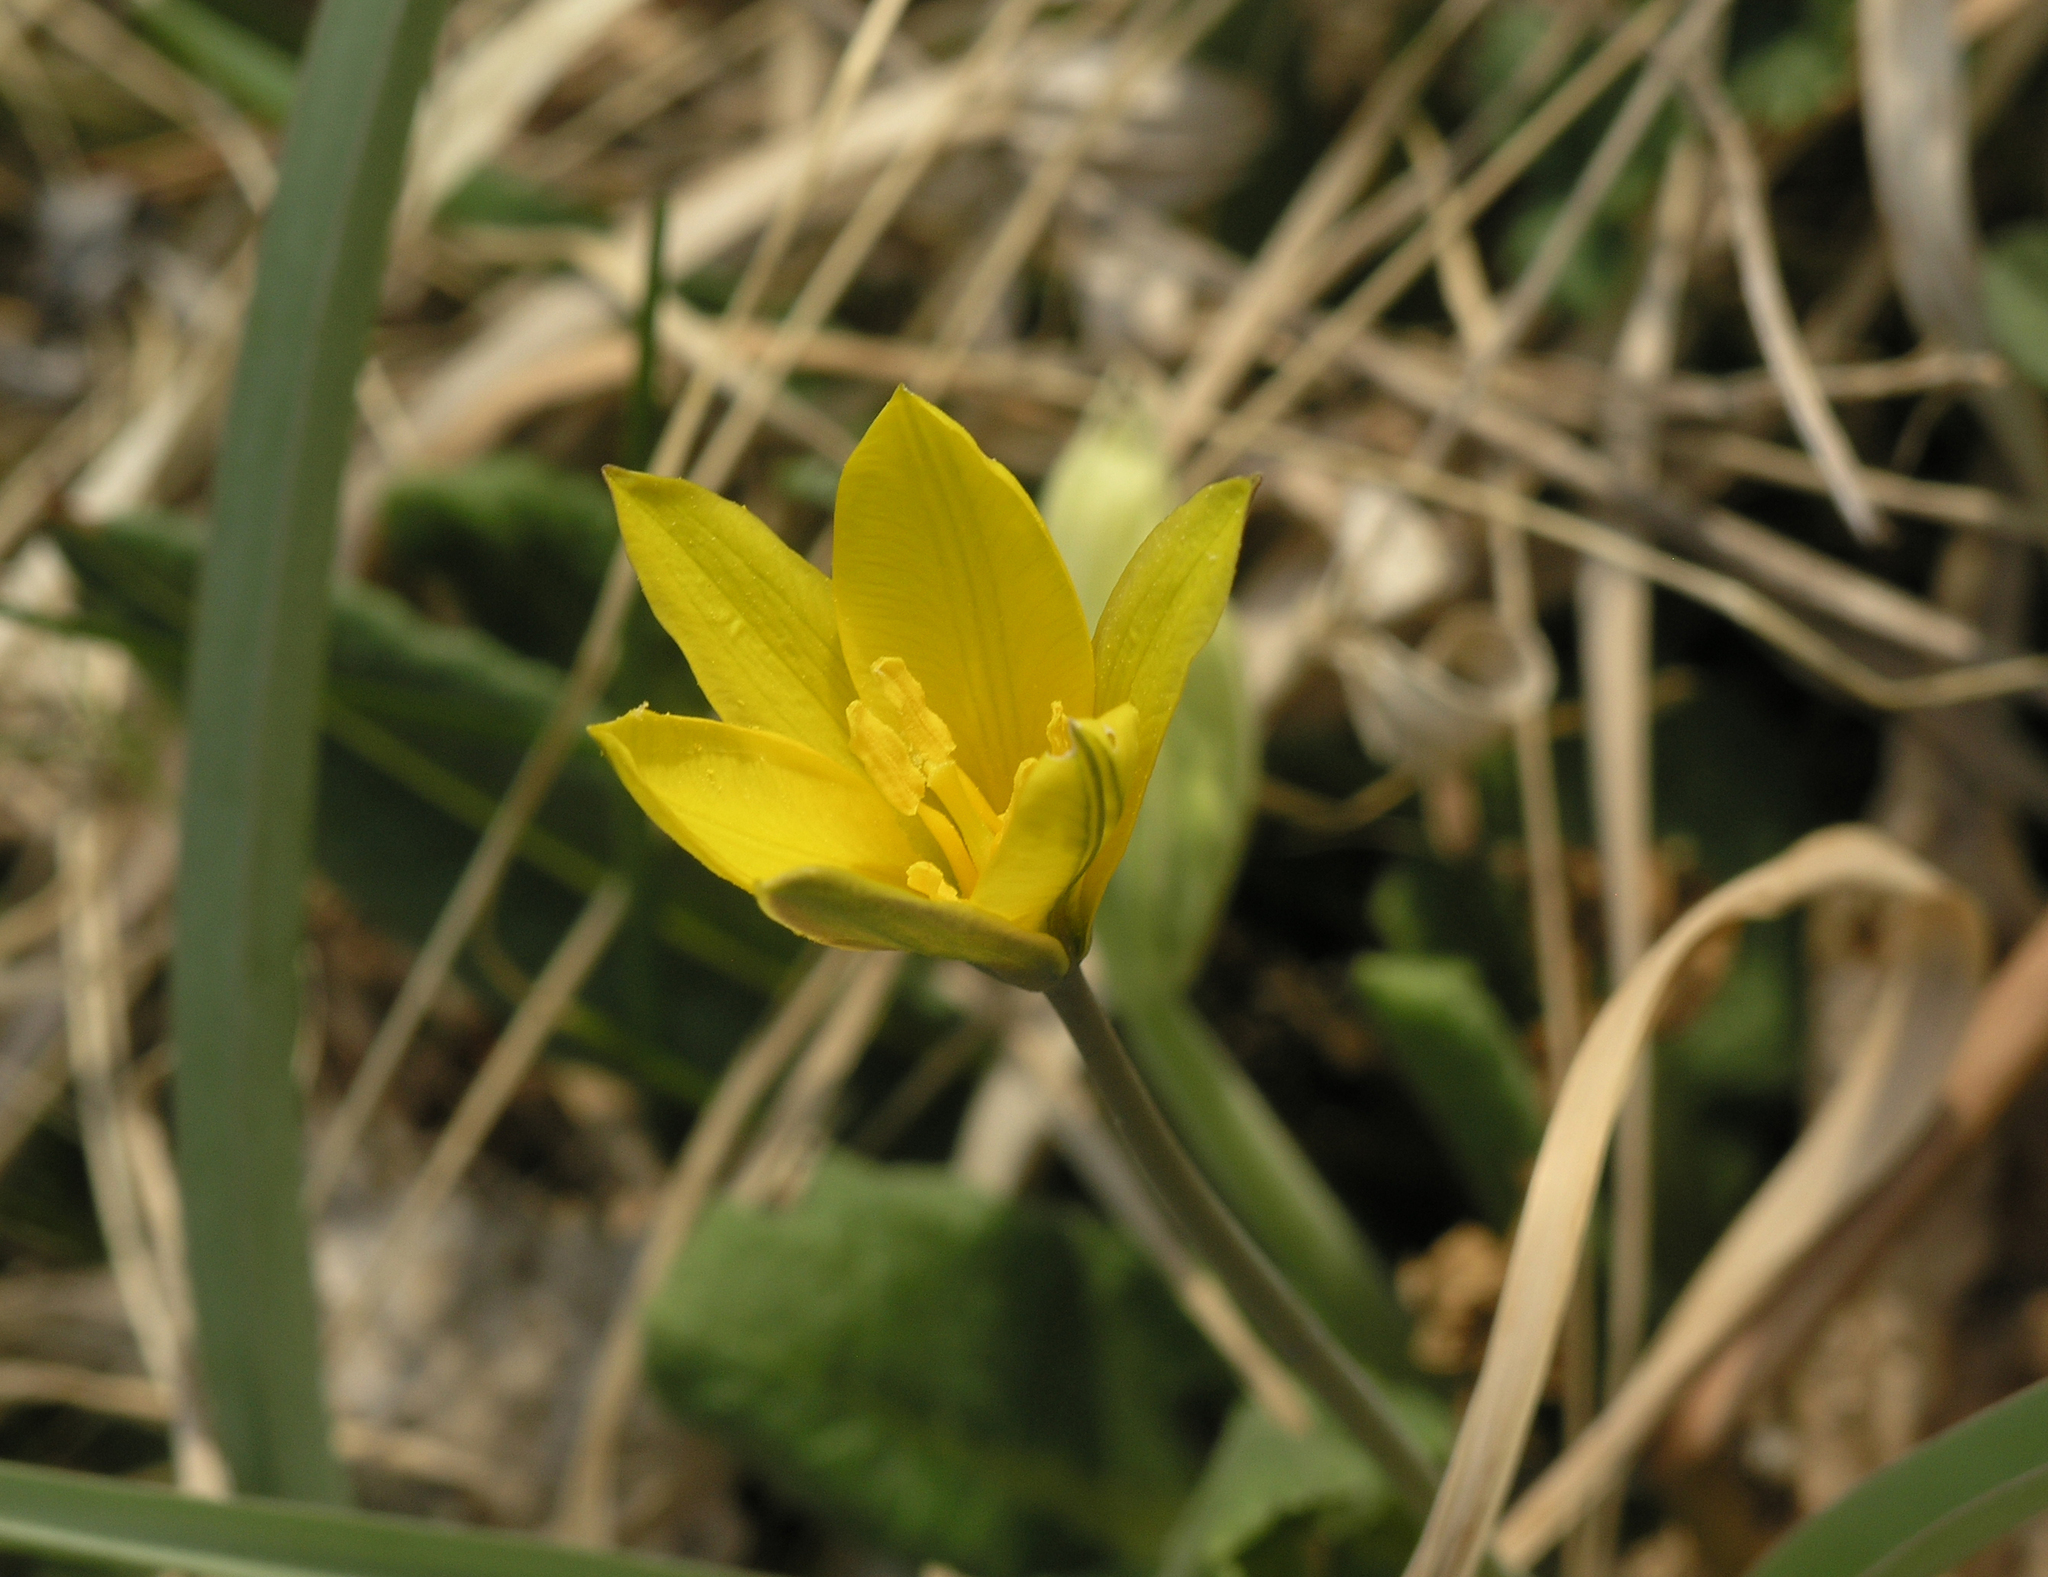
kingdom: Plantae
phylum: Tracheophyta
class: Liliopsida
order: Liliales
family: Liliaceae
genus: Tulipa
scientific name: Tulipa uniflora
